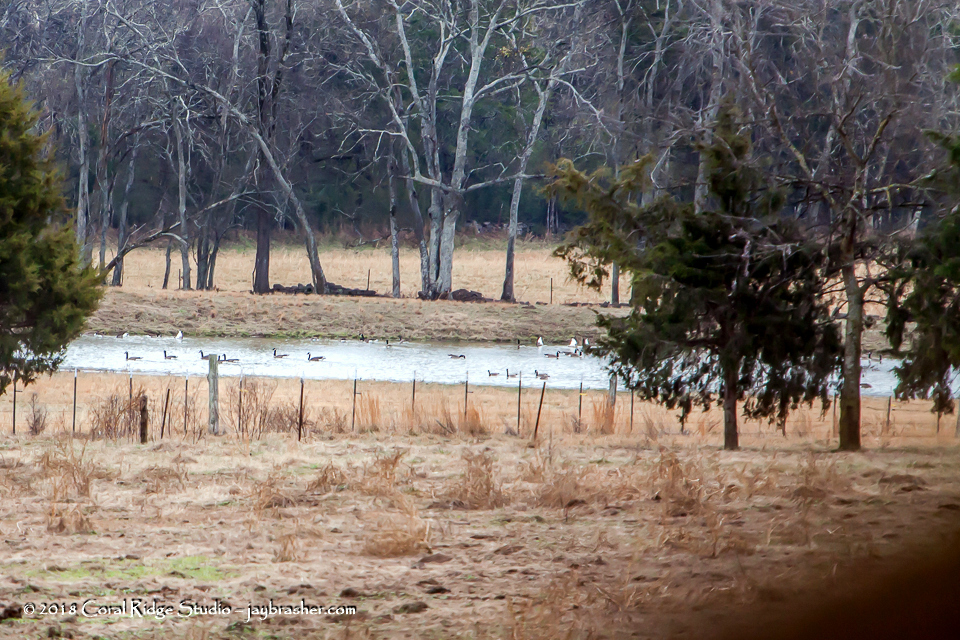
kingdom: Animalia
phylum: Chordata
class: Aves
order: Anseriformes
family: Anatidae
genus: Branta
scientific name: Branta canadensis
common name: Canada goose
